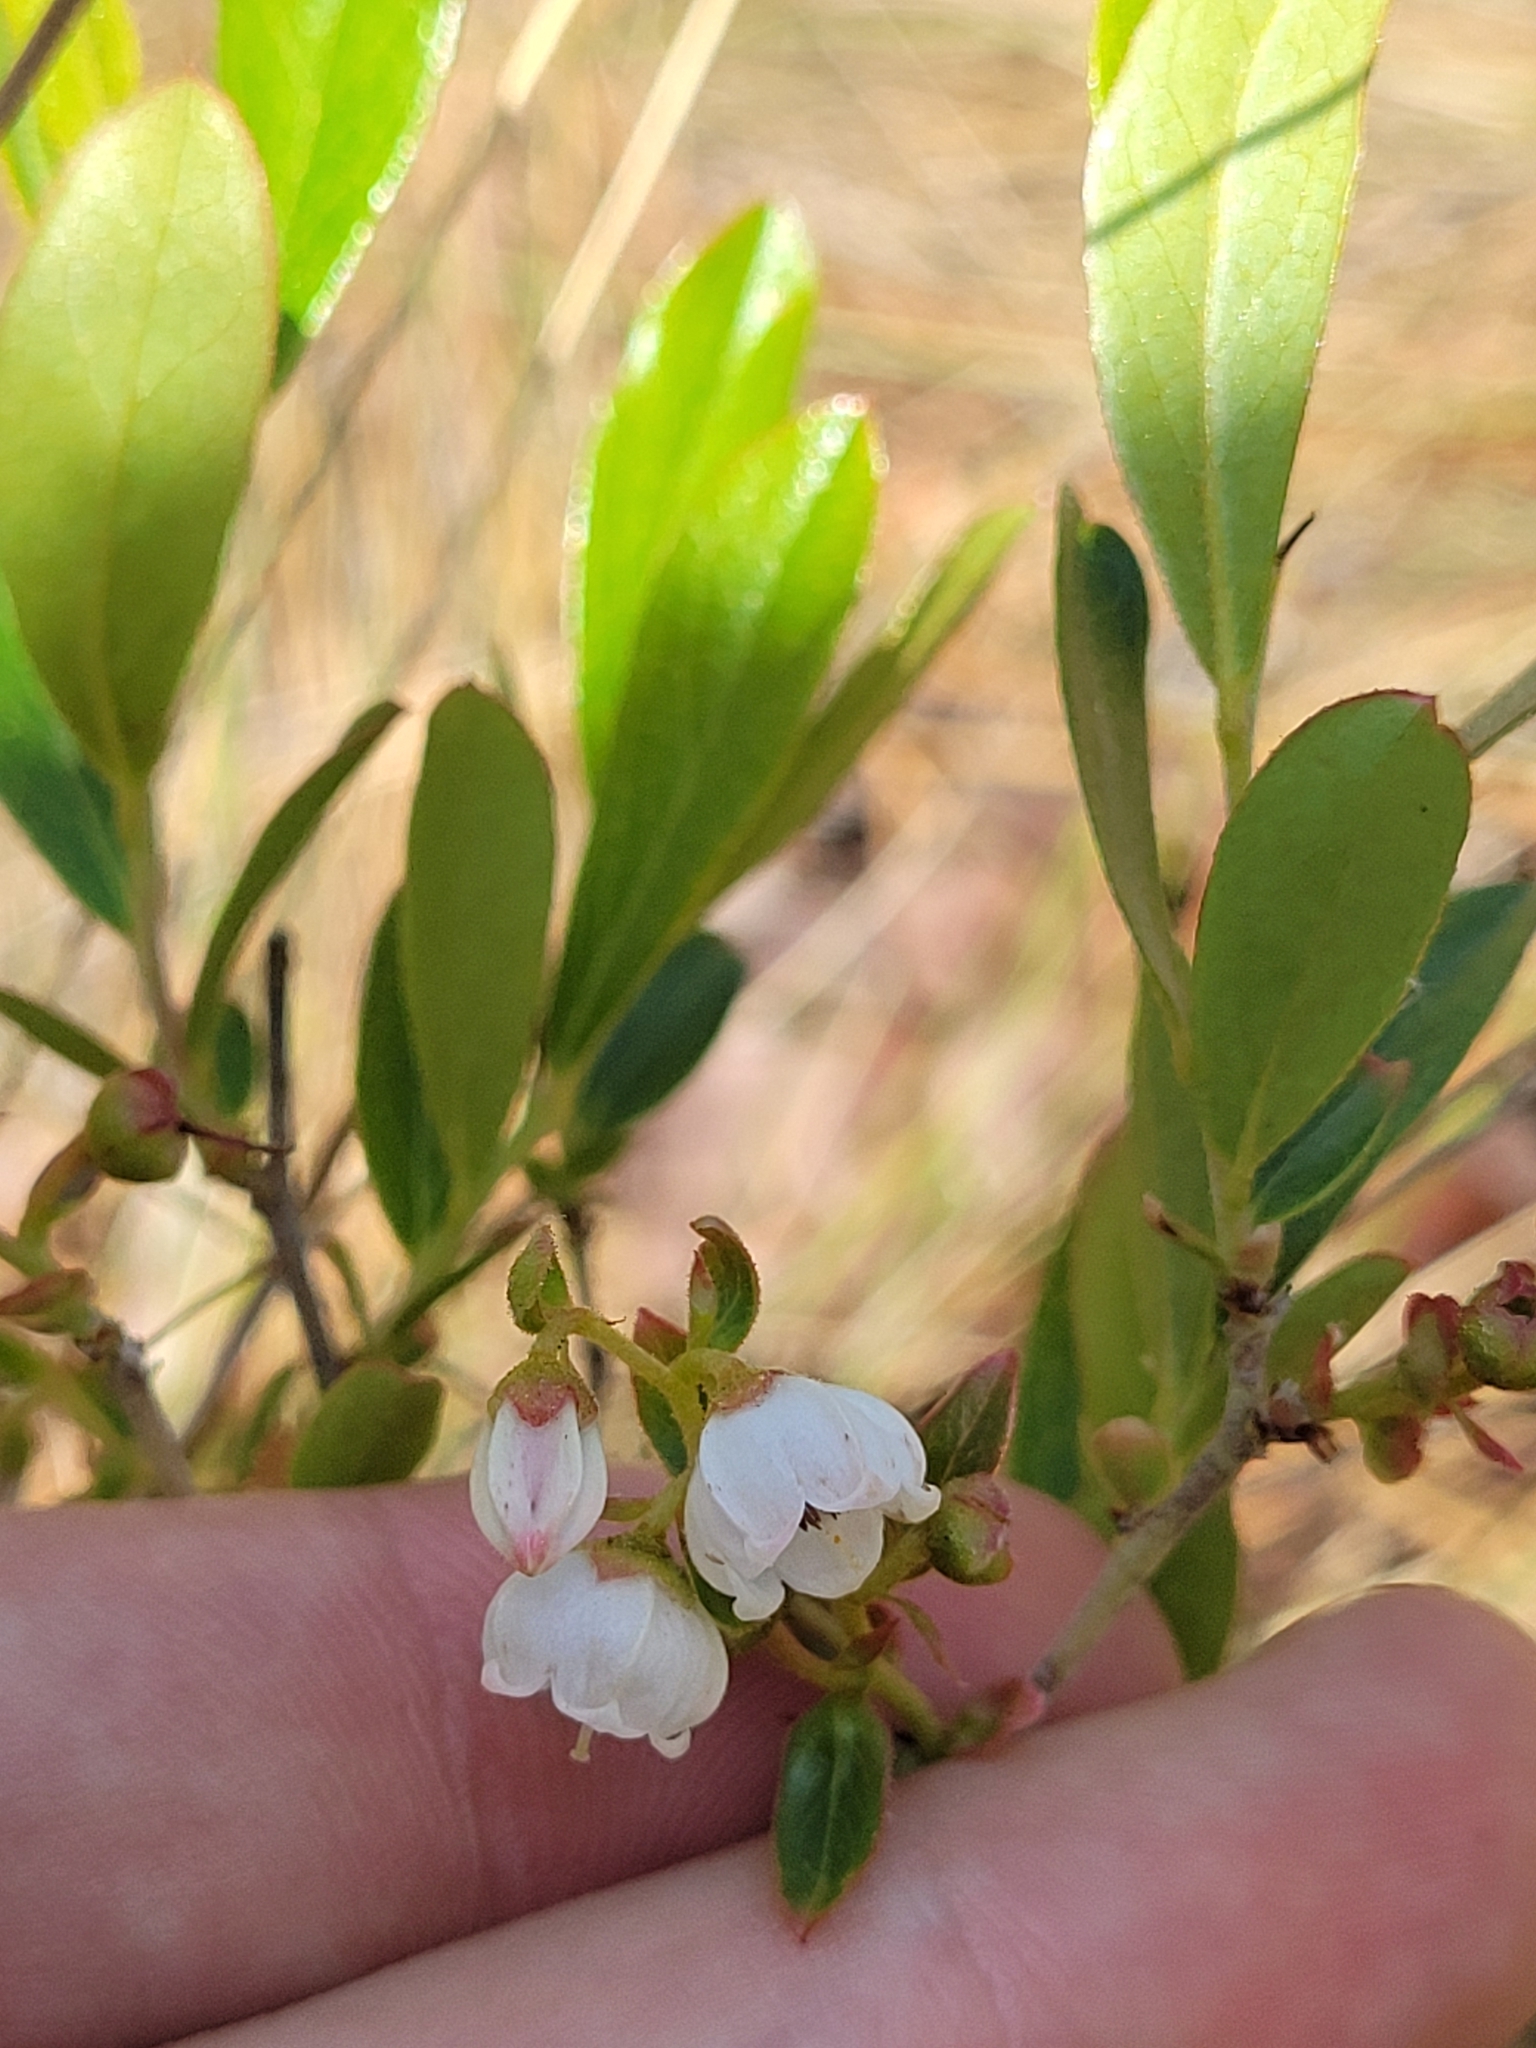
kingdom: Plantae
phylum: Tracheophyta
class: Magnoliopsida
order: Ericales
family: Ericaceae
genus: Gaylussacia
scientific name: Gaylussacia dumosa
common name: Dwarf huckleberry
